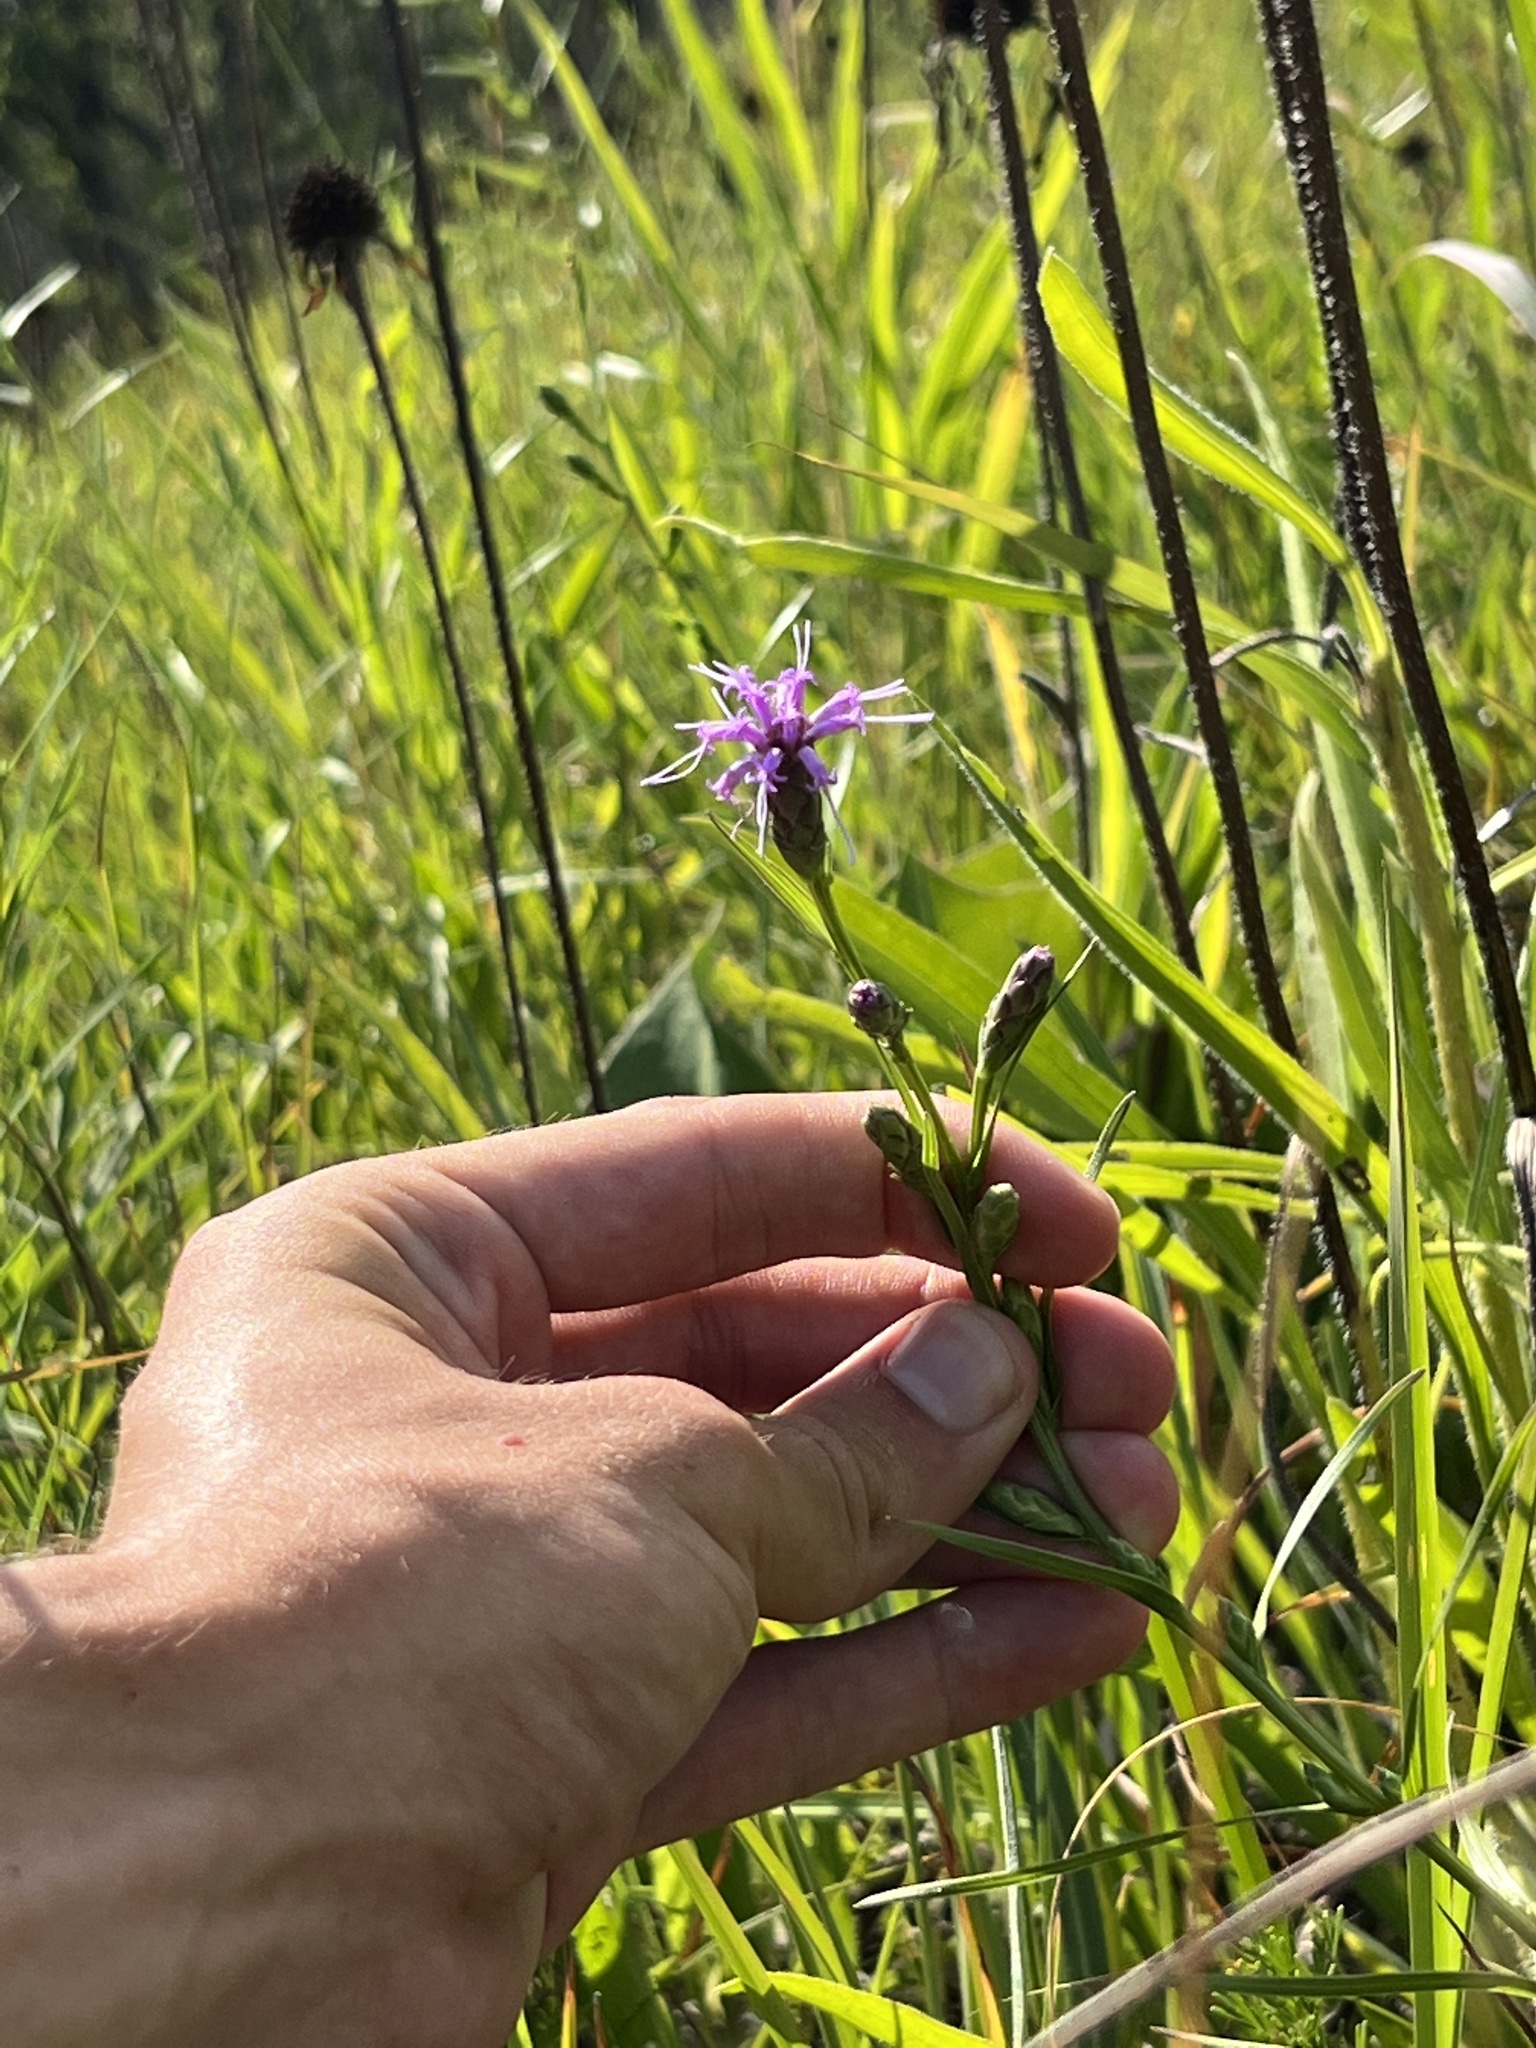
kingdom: Plantae
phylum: Tracheophyta
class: Magnoliopsida
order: Asterales
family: Asteraceae
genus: Liatris
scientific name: Liatris cylindracea
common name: Few-head blazingstar
